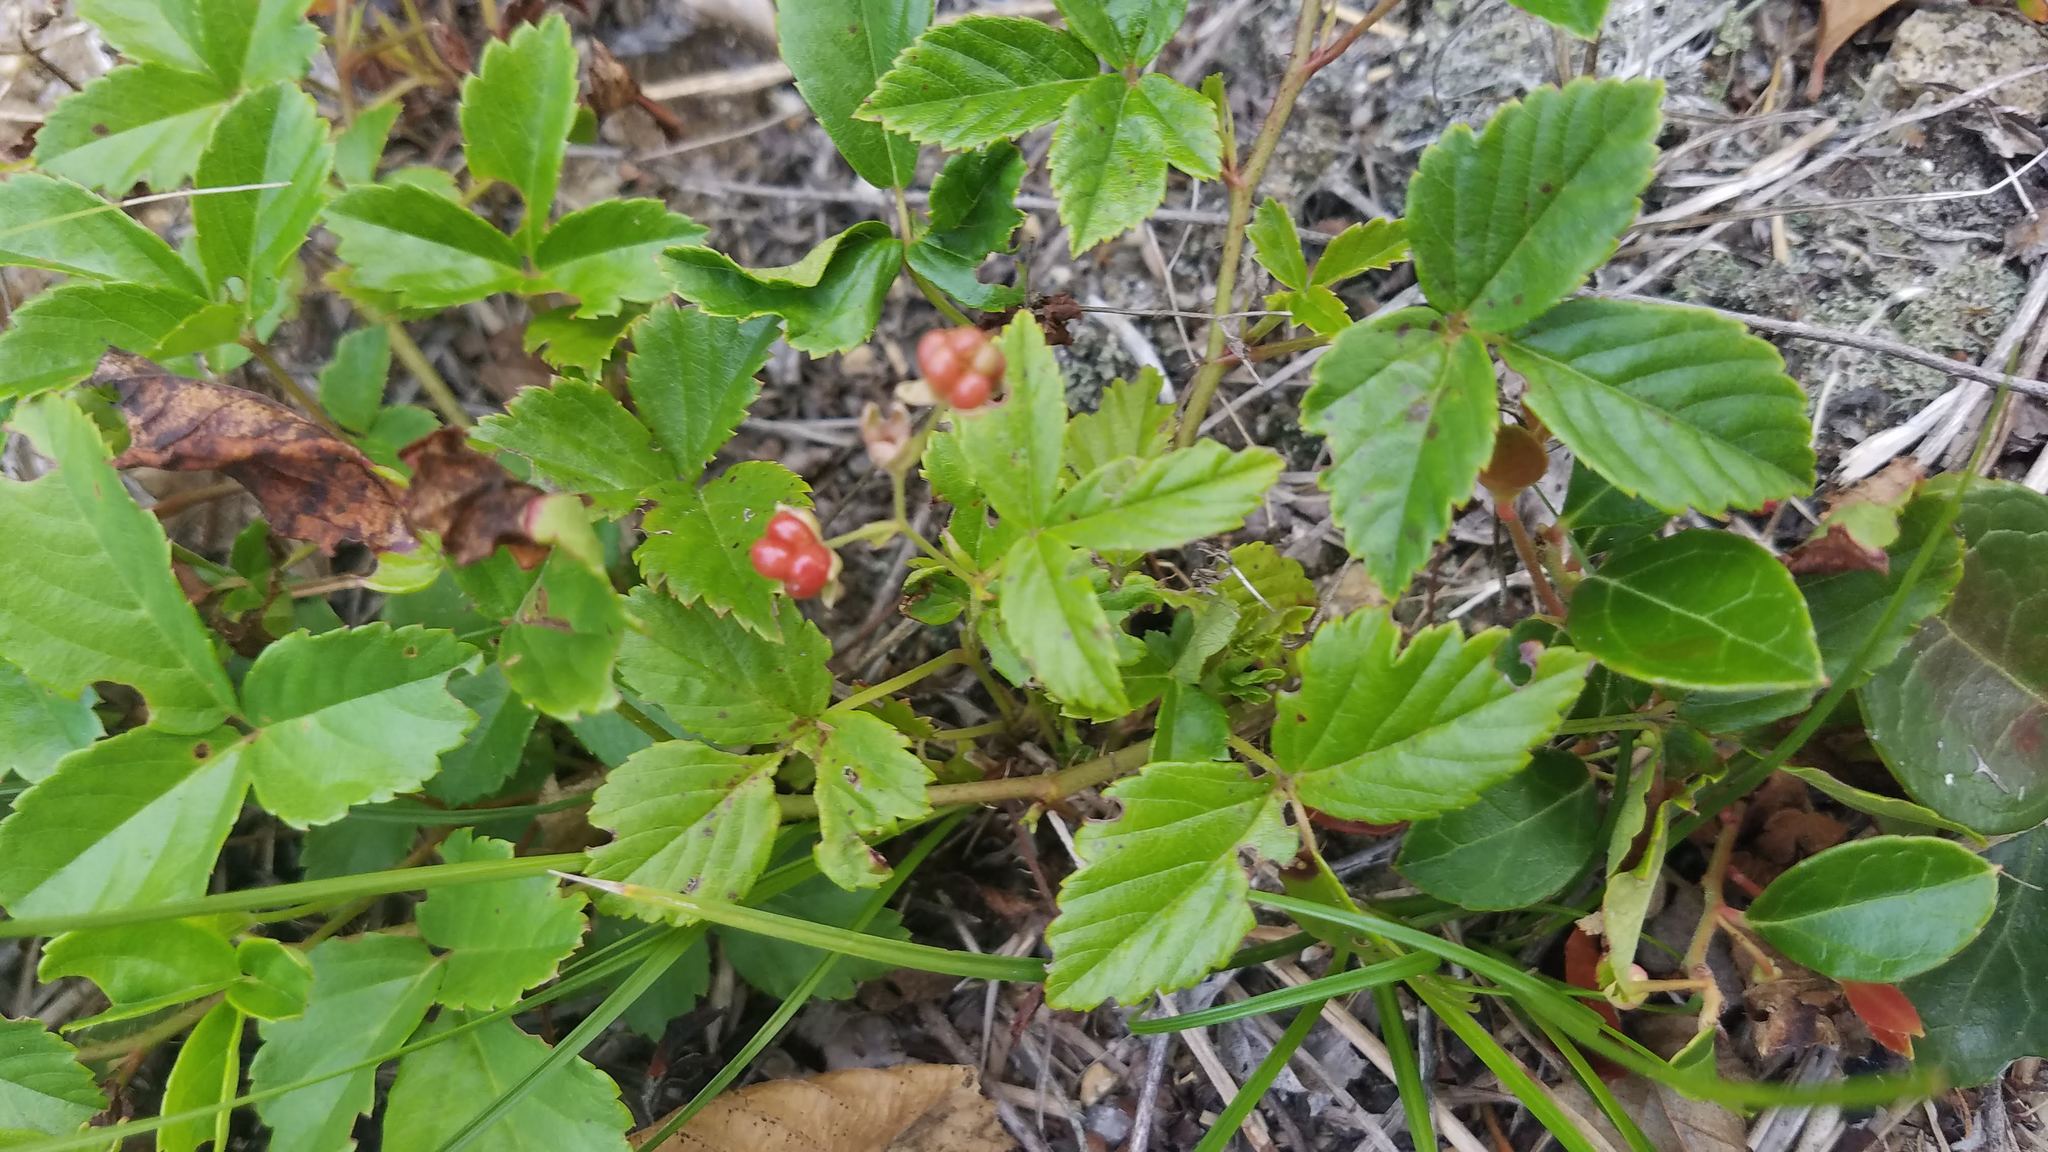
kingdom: Plantae
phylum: Tracheophyta
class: Magnoliopsida
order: Rosales
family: Rosaceae
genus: Rubus
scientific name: Rubus hispidus
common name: Running blackberry
